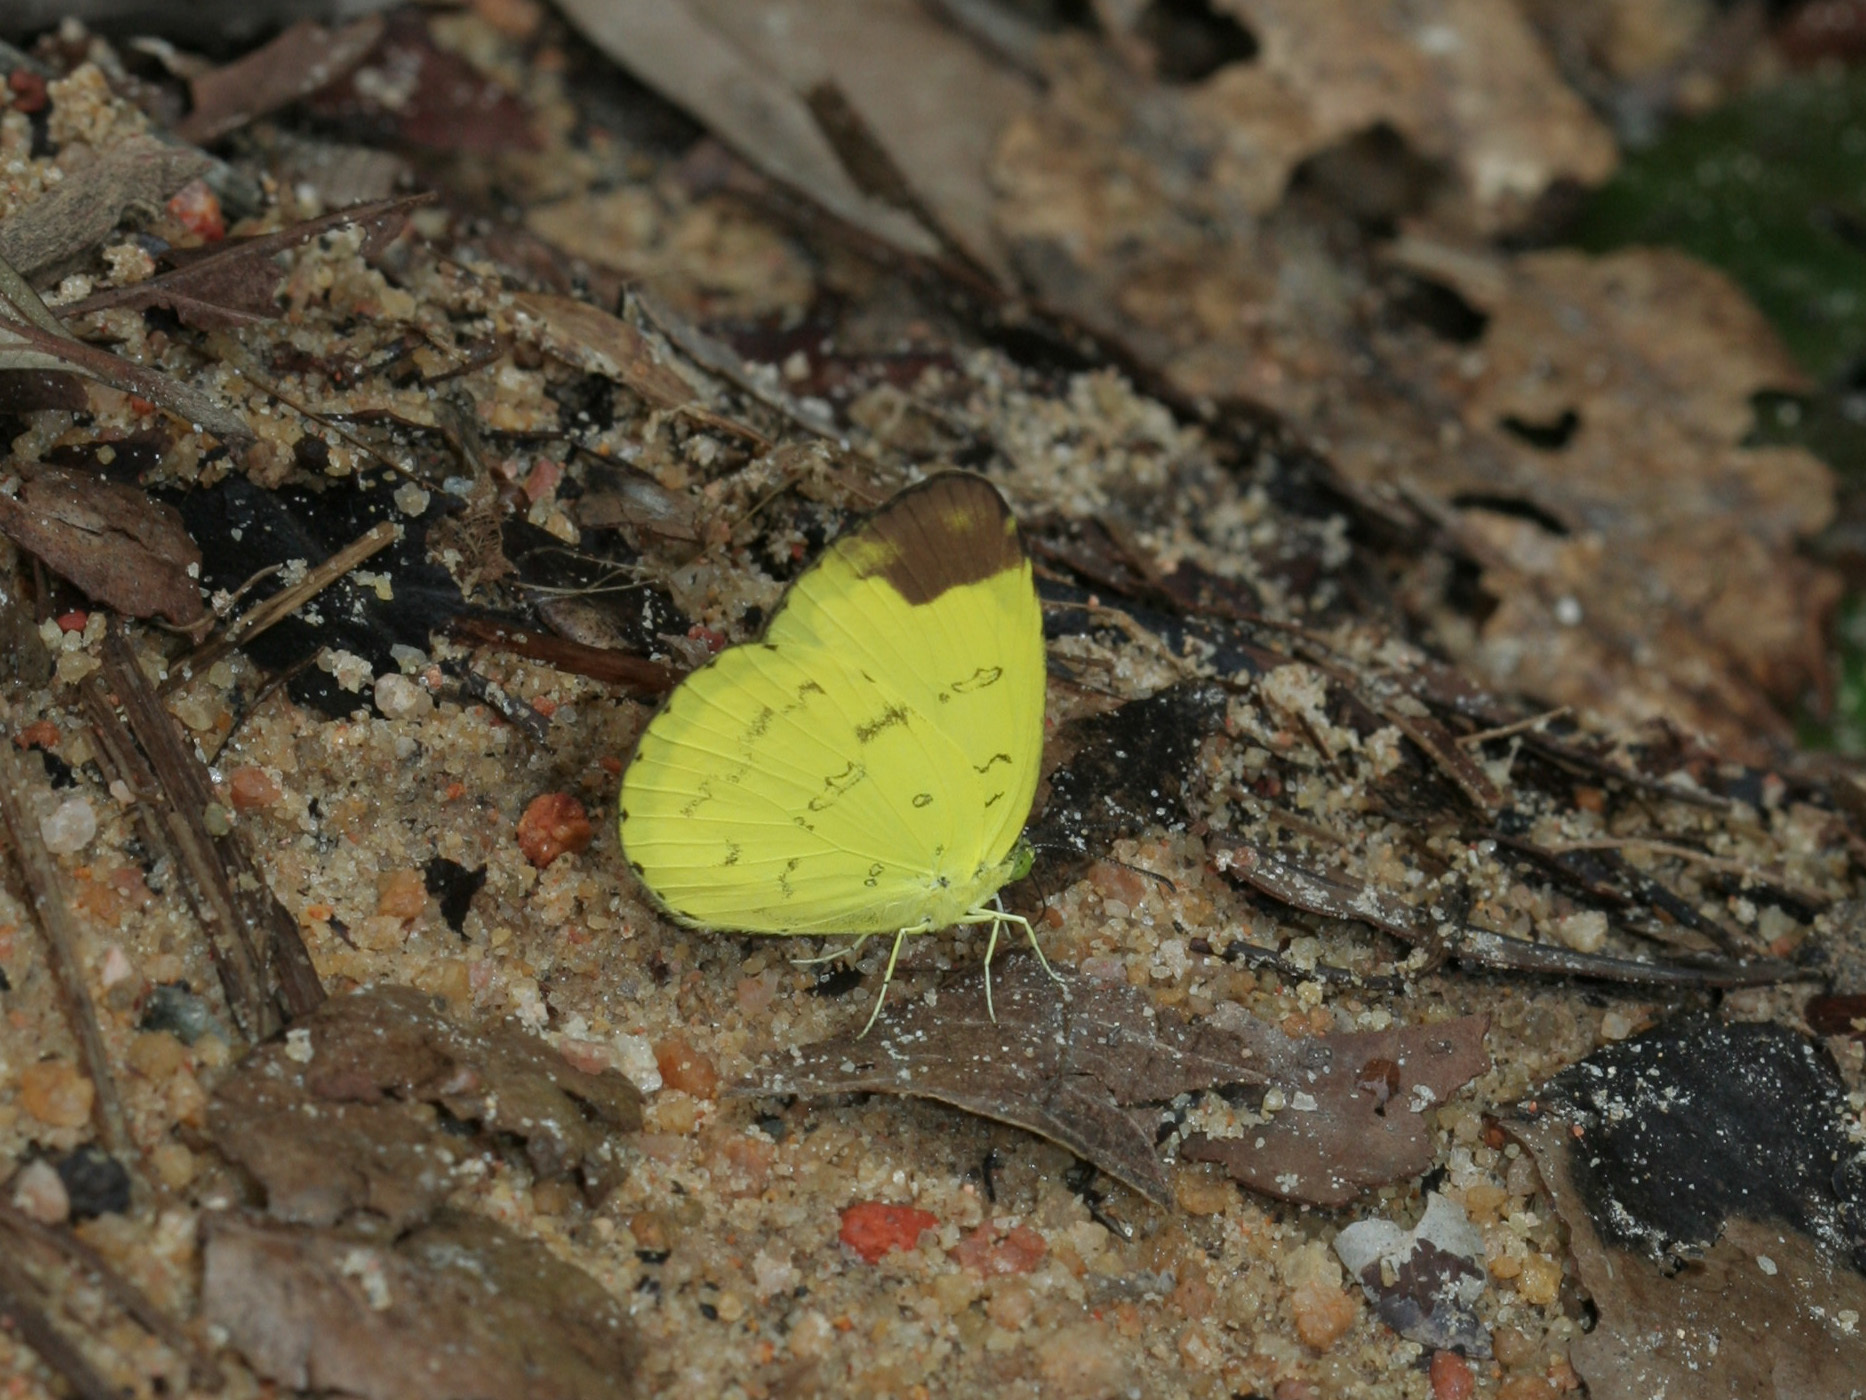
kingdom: Animalia
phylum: Arthropoda
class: Insecta
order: Lepidoptera
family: Pieridae
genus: Eurema
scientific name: Eurema simulatrix
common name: Hill grass yellow
